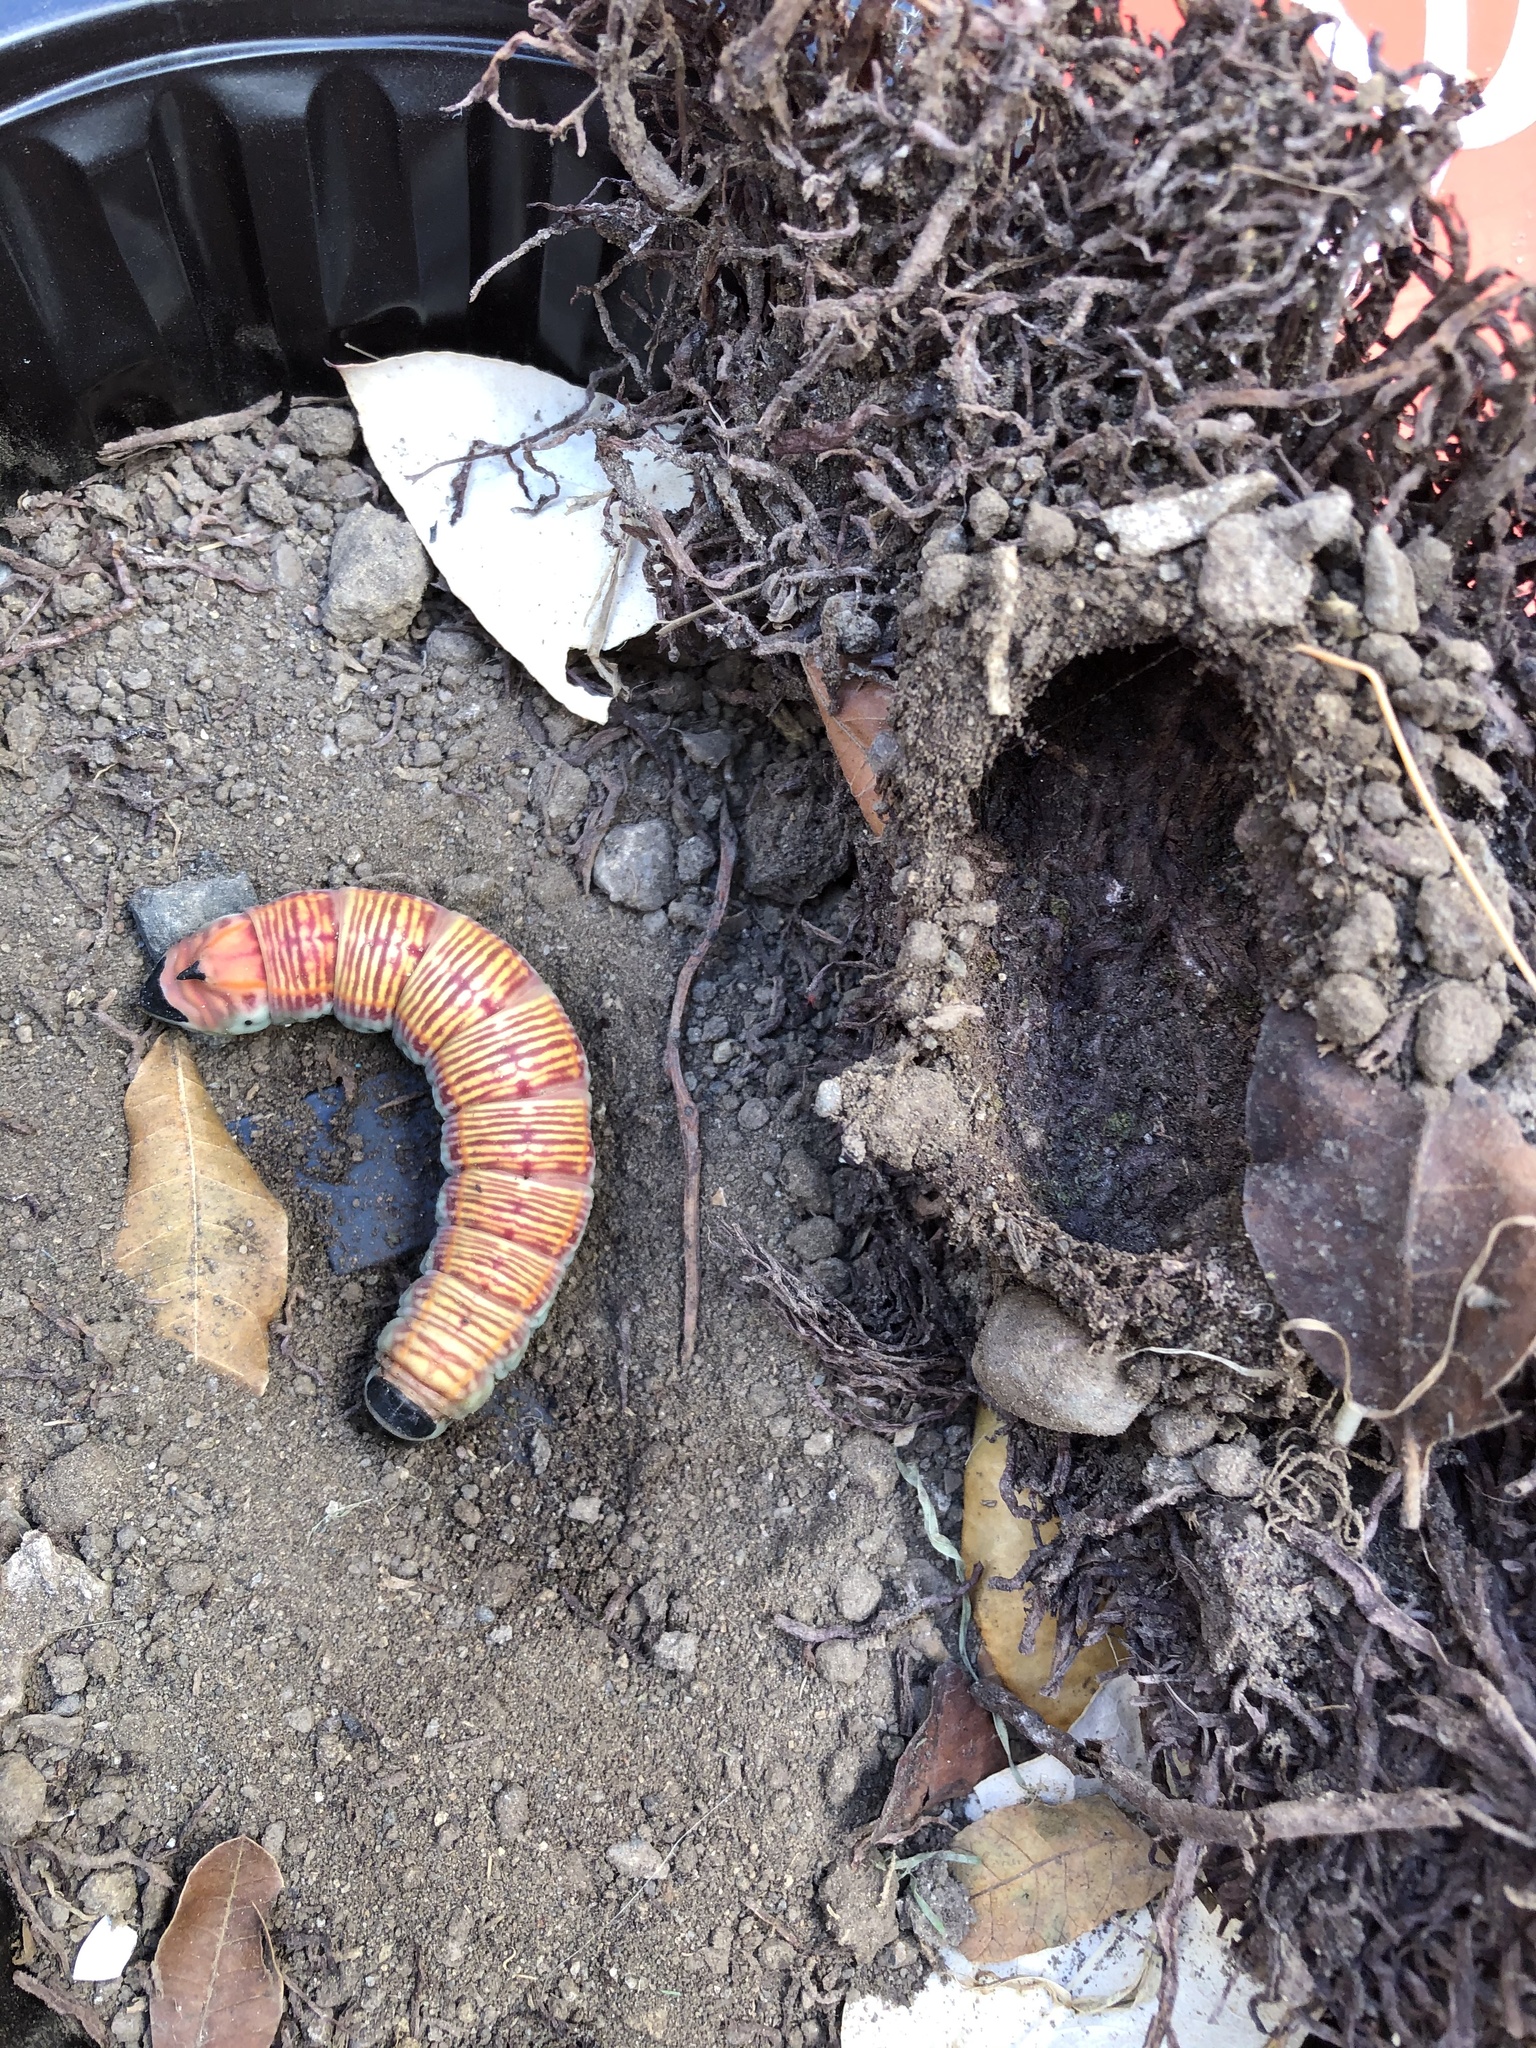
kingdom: Animalia
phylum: Arthropoda
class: Insecta
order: Lepidoptera
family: Sphingidae
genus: Pachylia
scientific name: Pachylia ficus
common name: Fig sphinx
